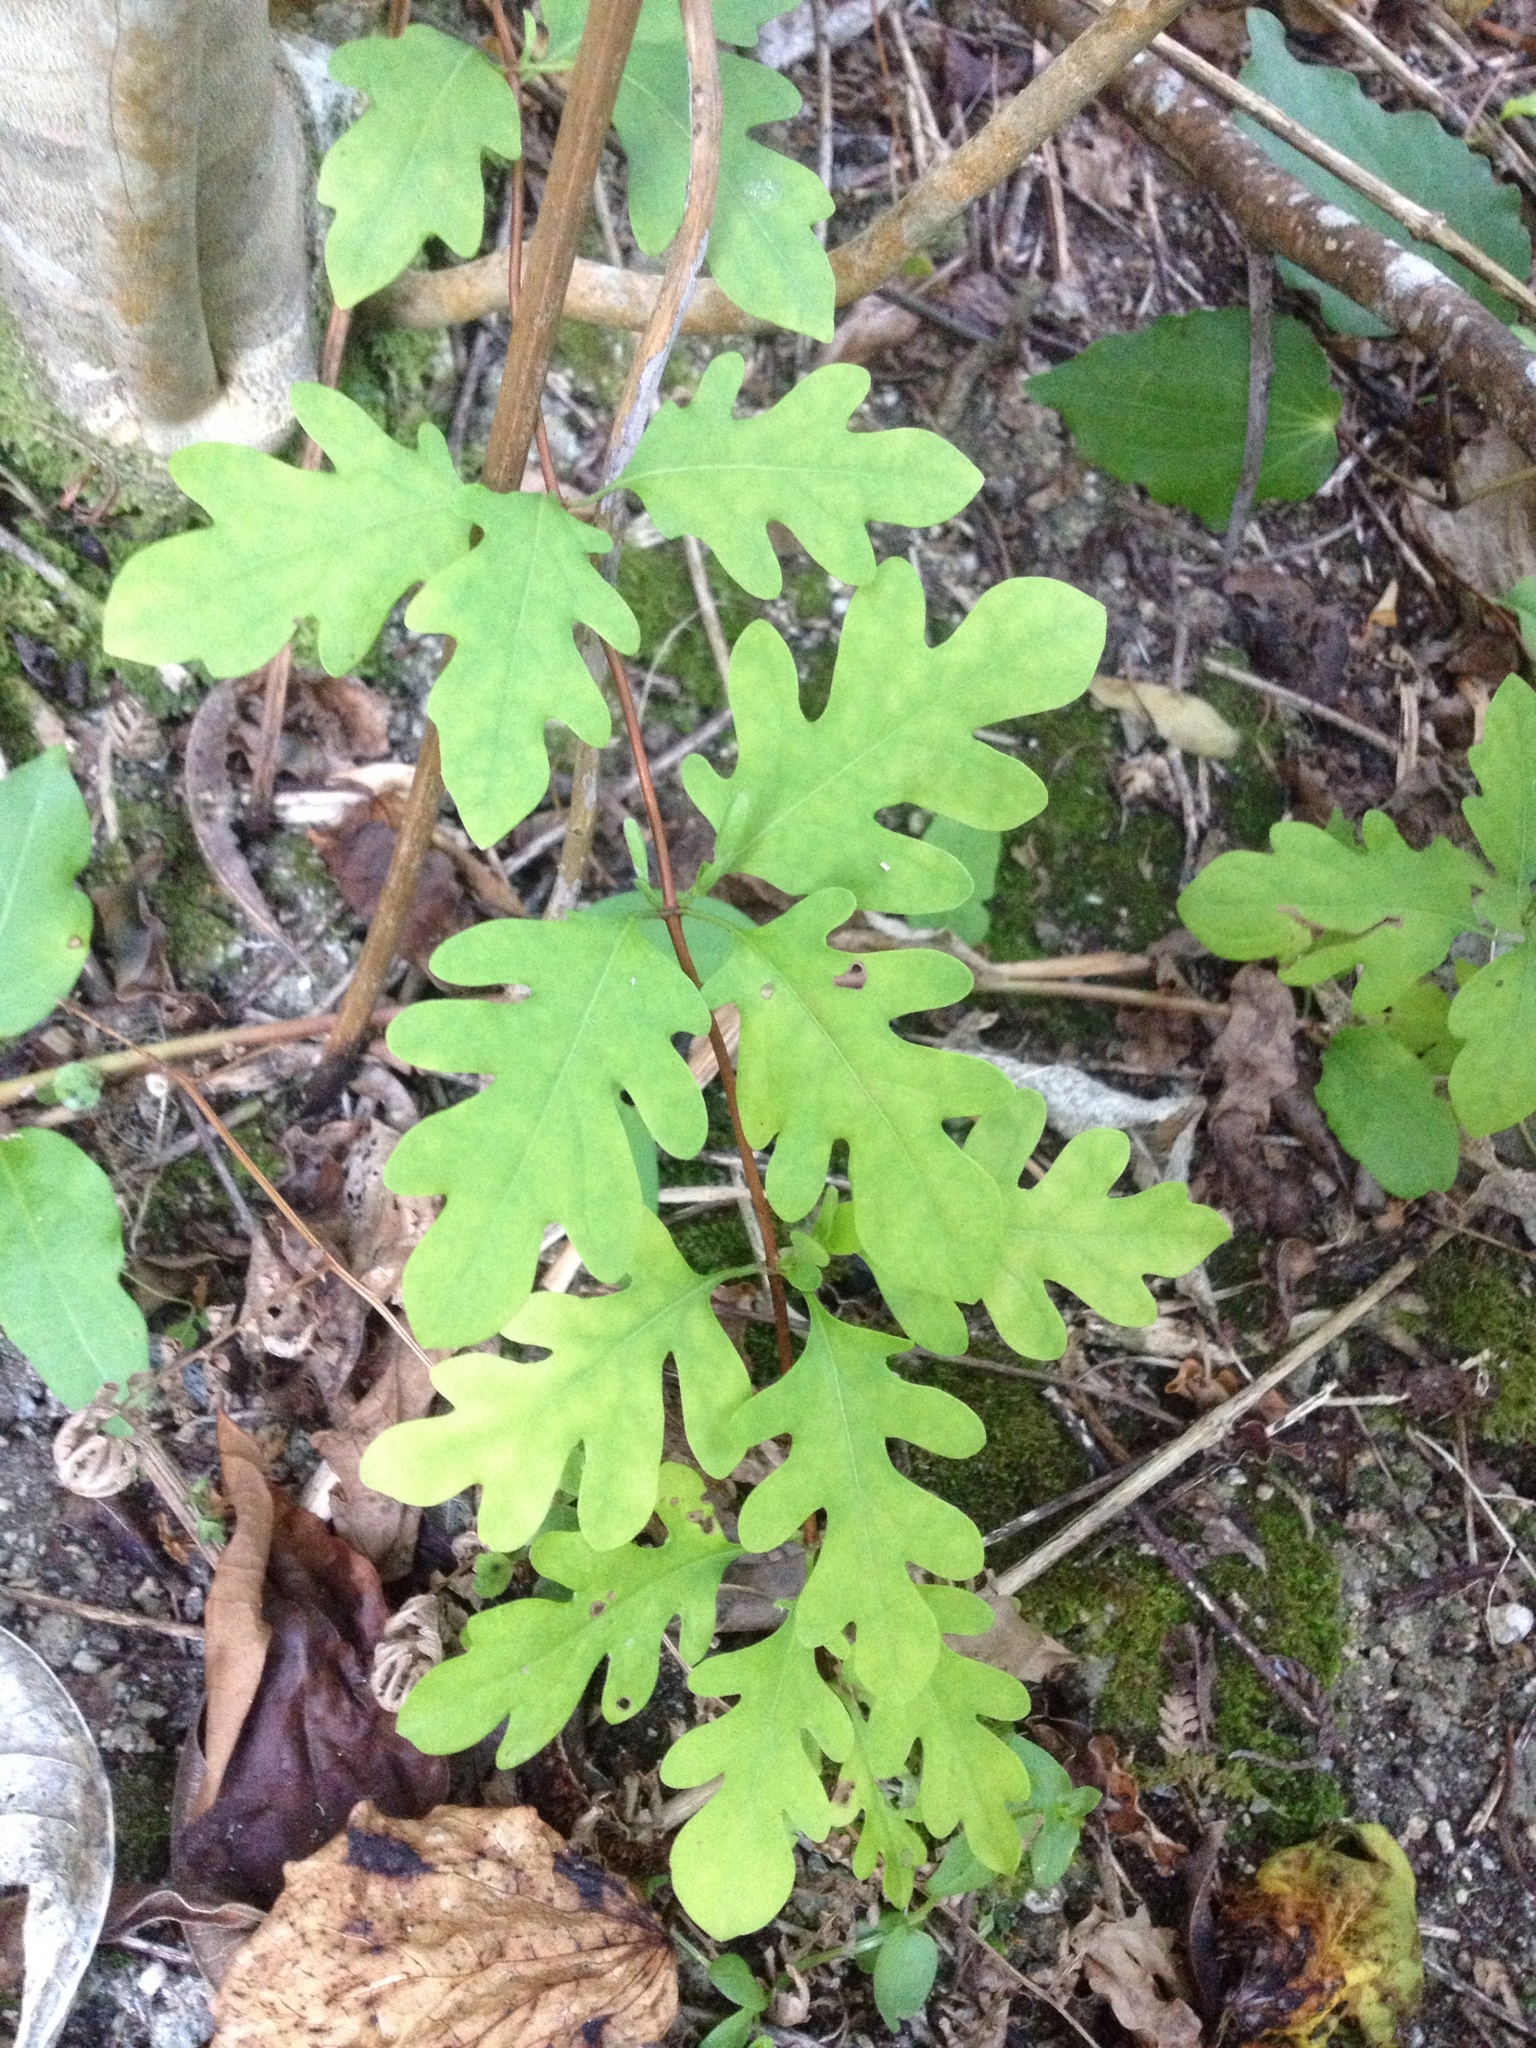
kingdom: Plantae
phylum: Tracheophyta
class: Magnoliopsida
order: Dipsacales
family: Caprifoliaceae
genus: Lonicera
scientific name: Lonicera japonica
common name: Japanese honeysuckle
